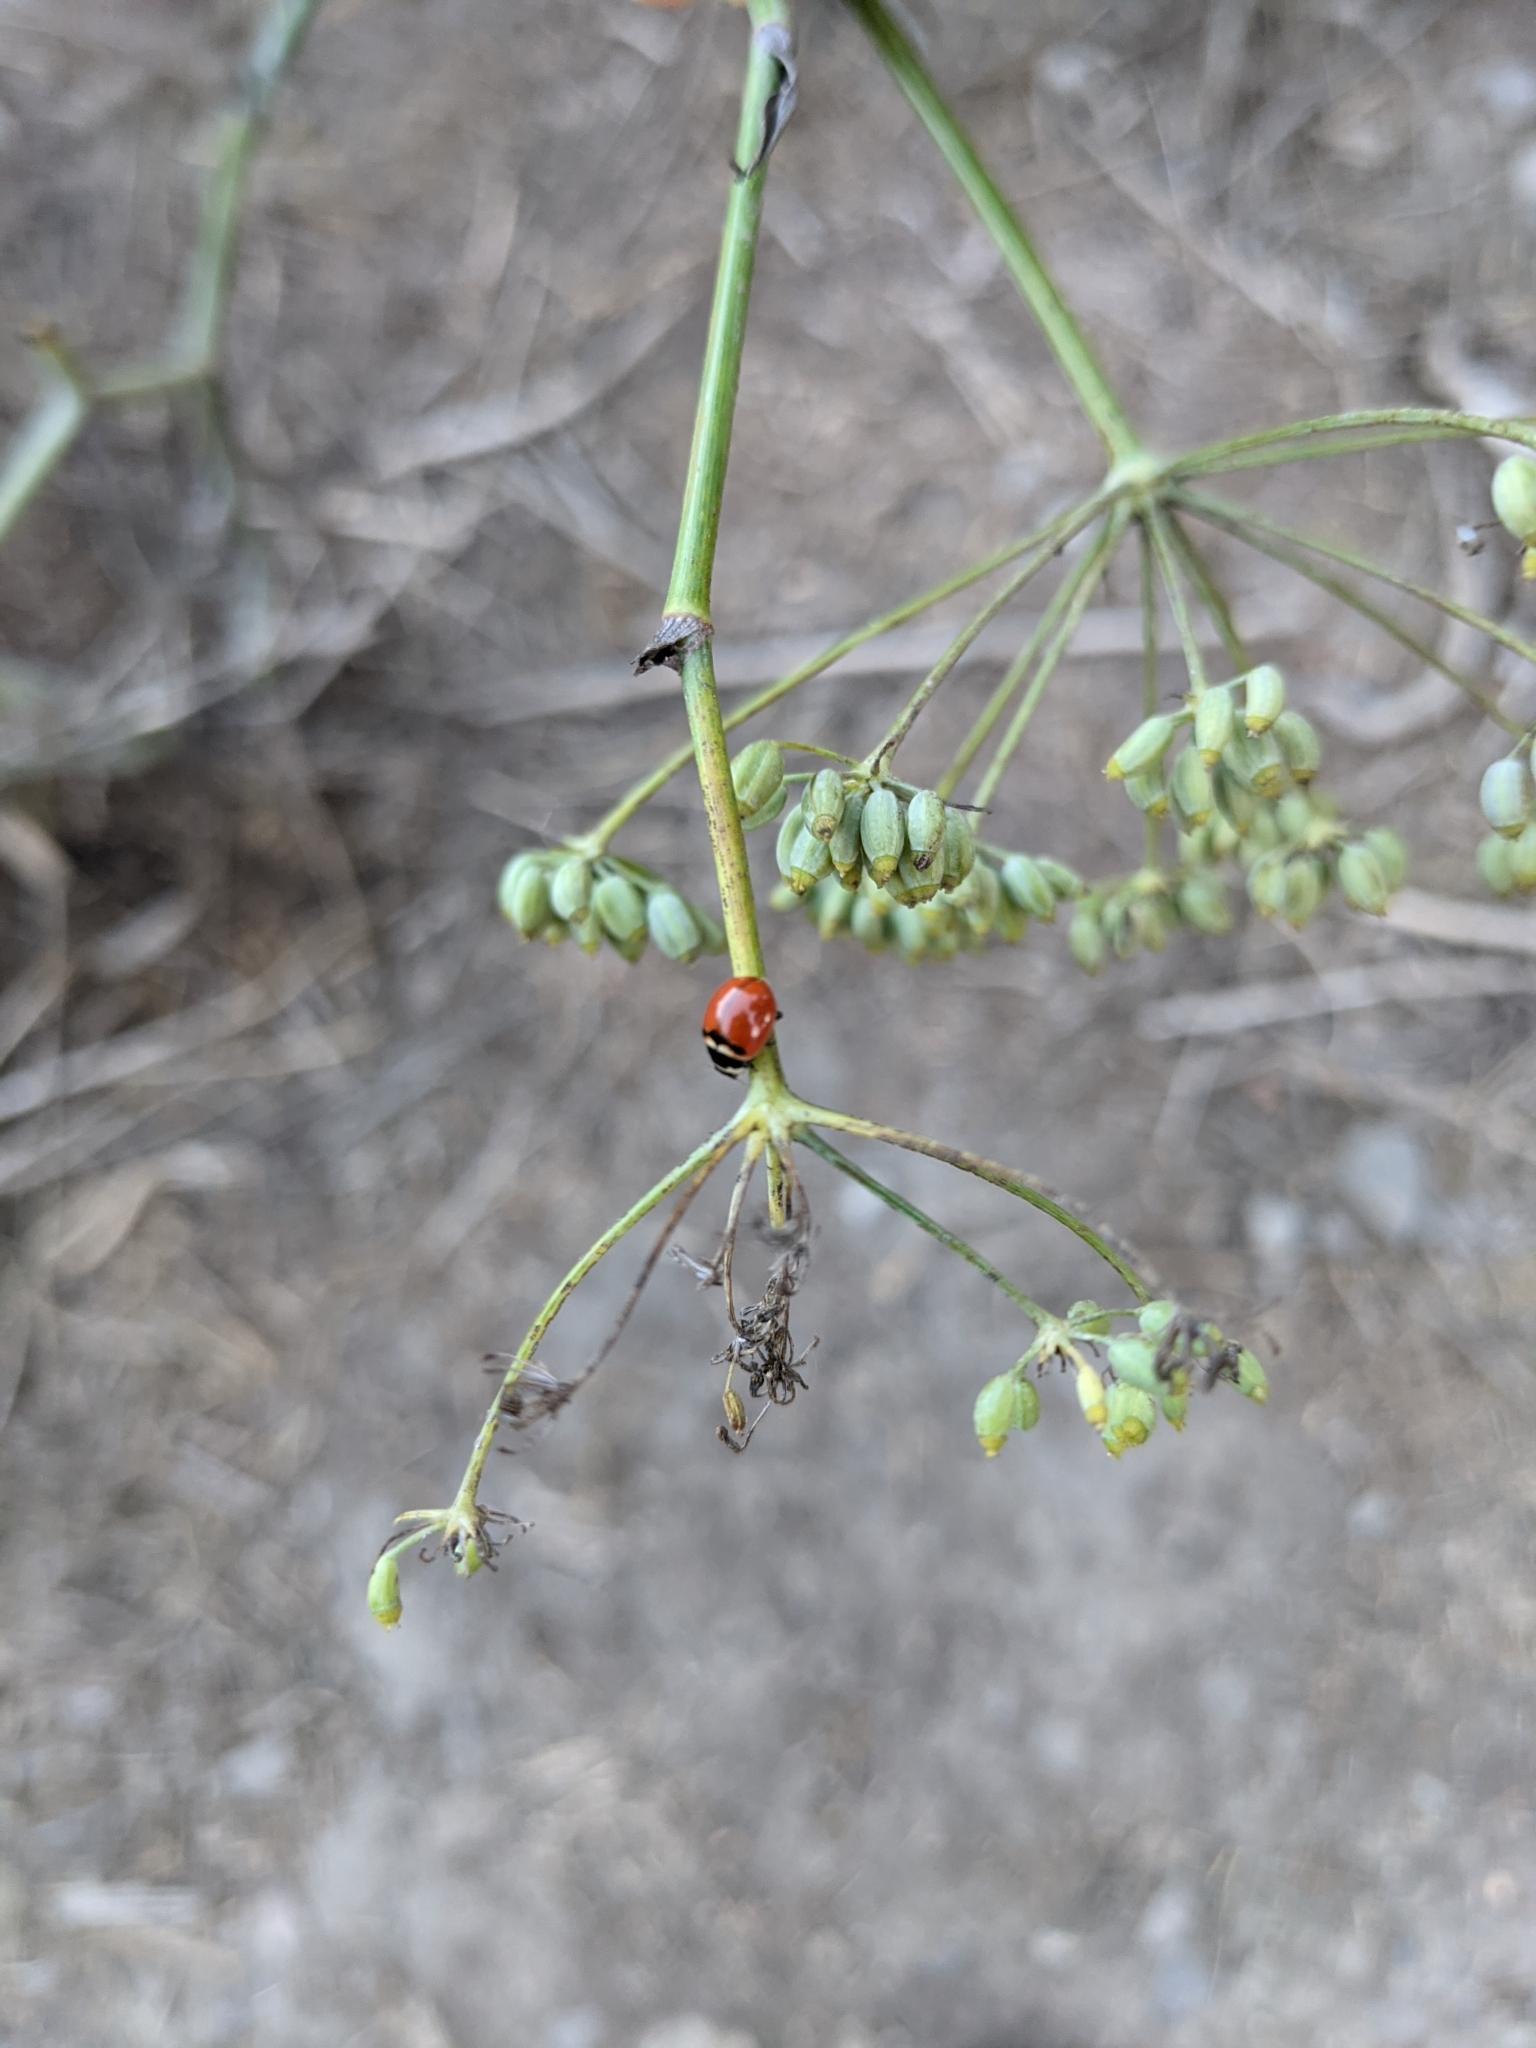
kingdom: Animalia
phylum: Arthropoda
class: Insecta
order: Coleoptera
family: Coccinellidae
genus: Coccinella
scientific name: Coccinella trifasciata
